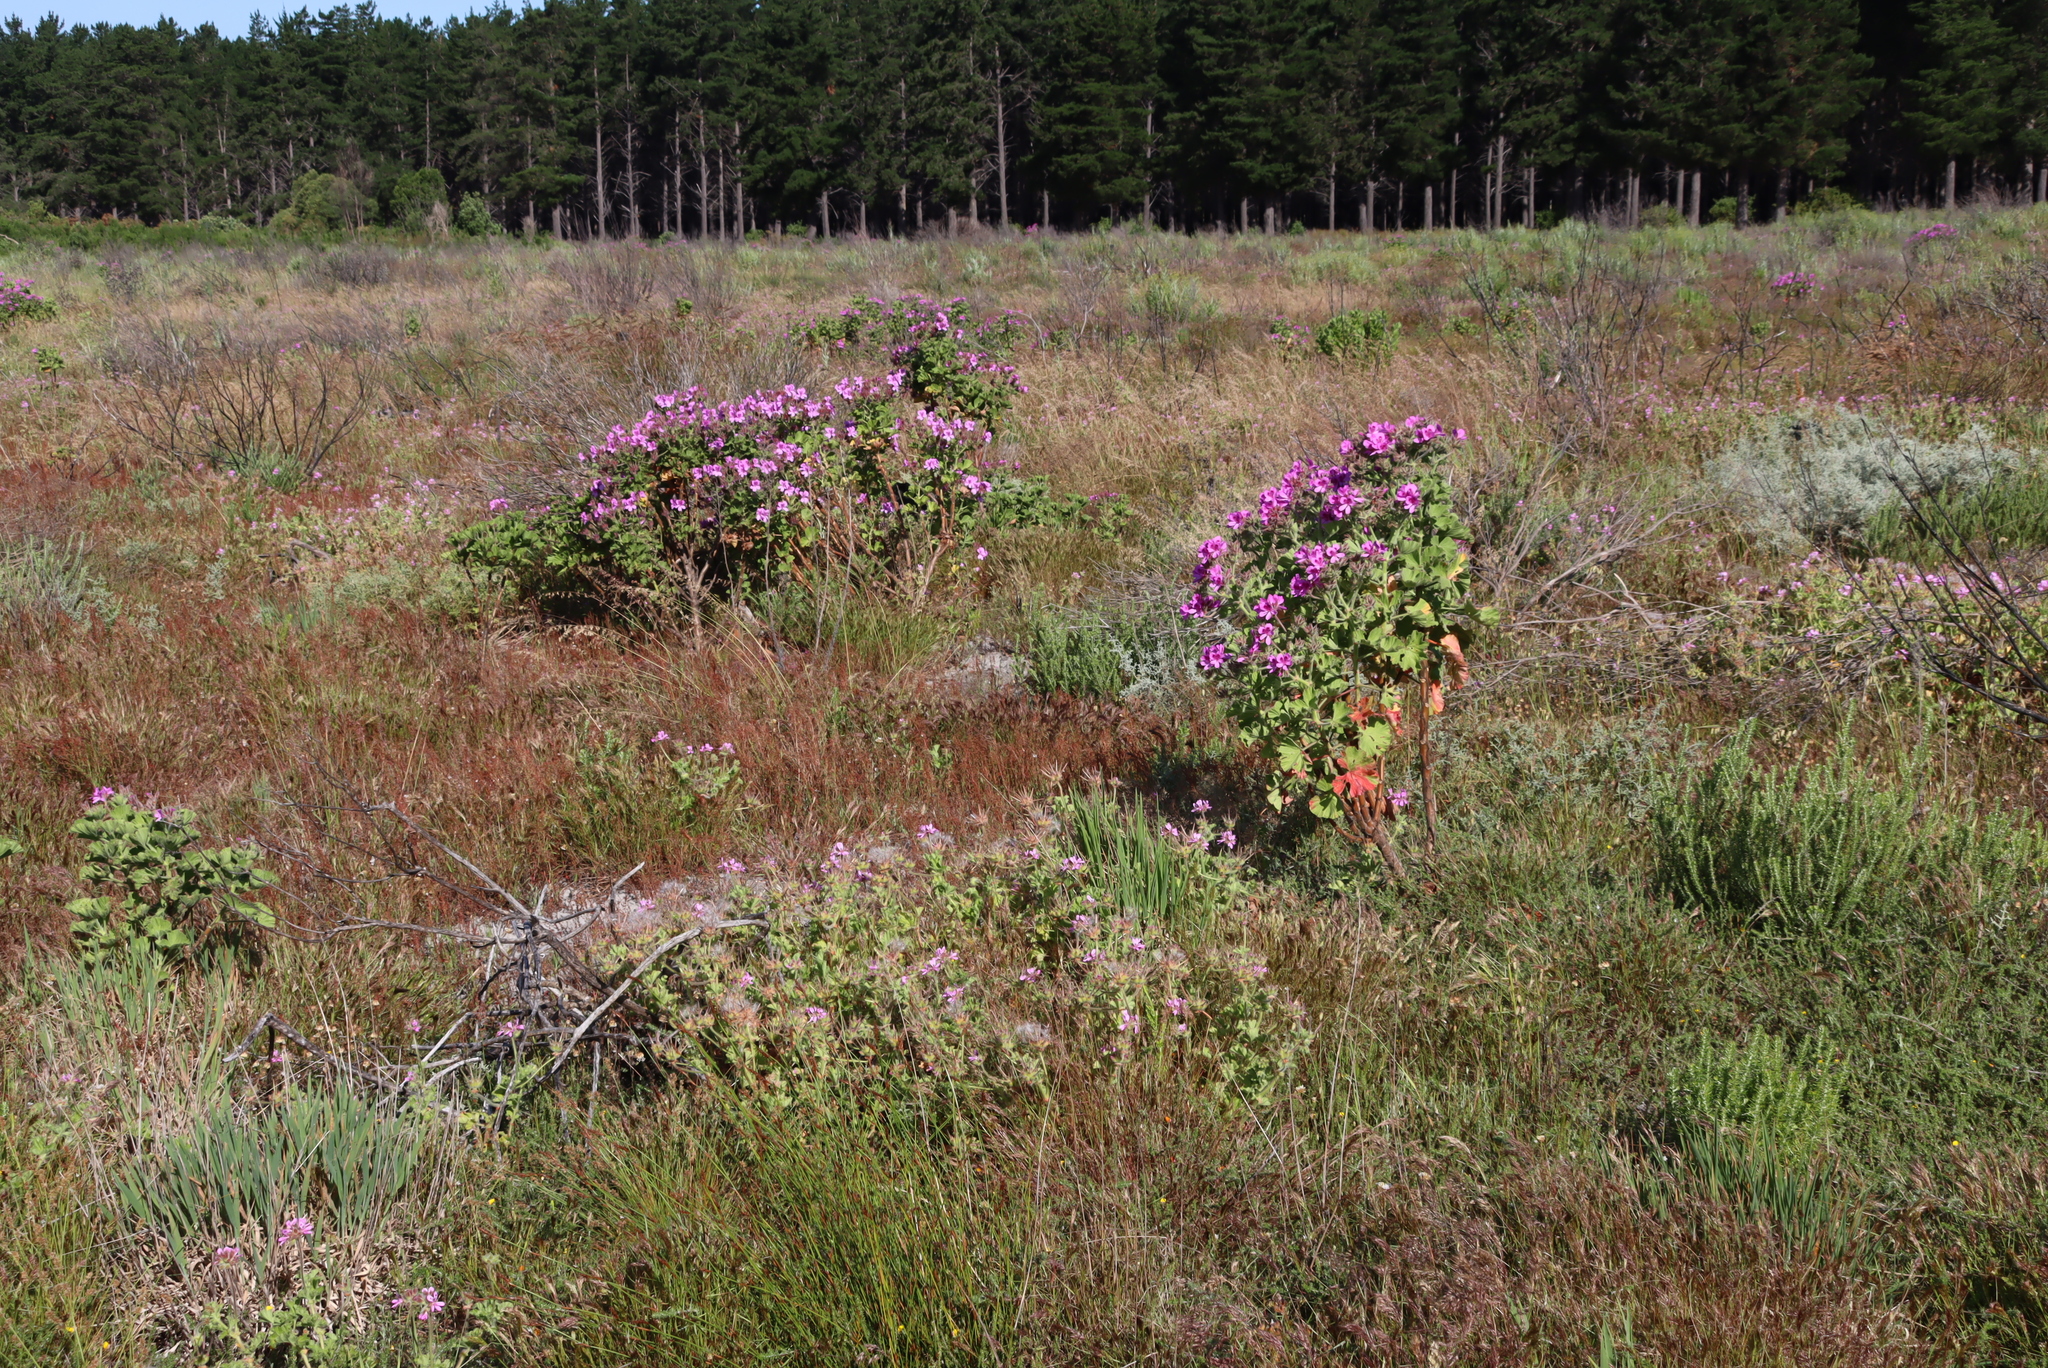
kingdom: Plantae
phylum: Tracheophyta
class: Magnoliopsida
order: Geraniales
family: Geraniaceae
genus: Pelargonium
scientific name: Pelargonium capitatum
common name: Rose scented geranium
